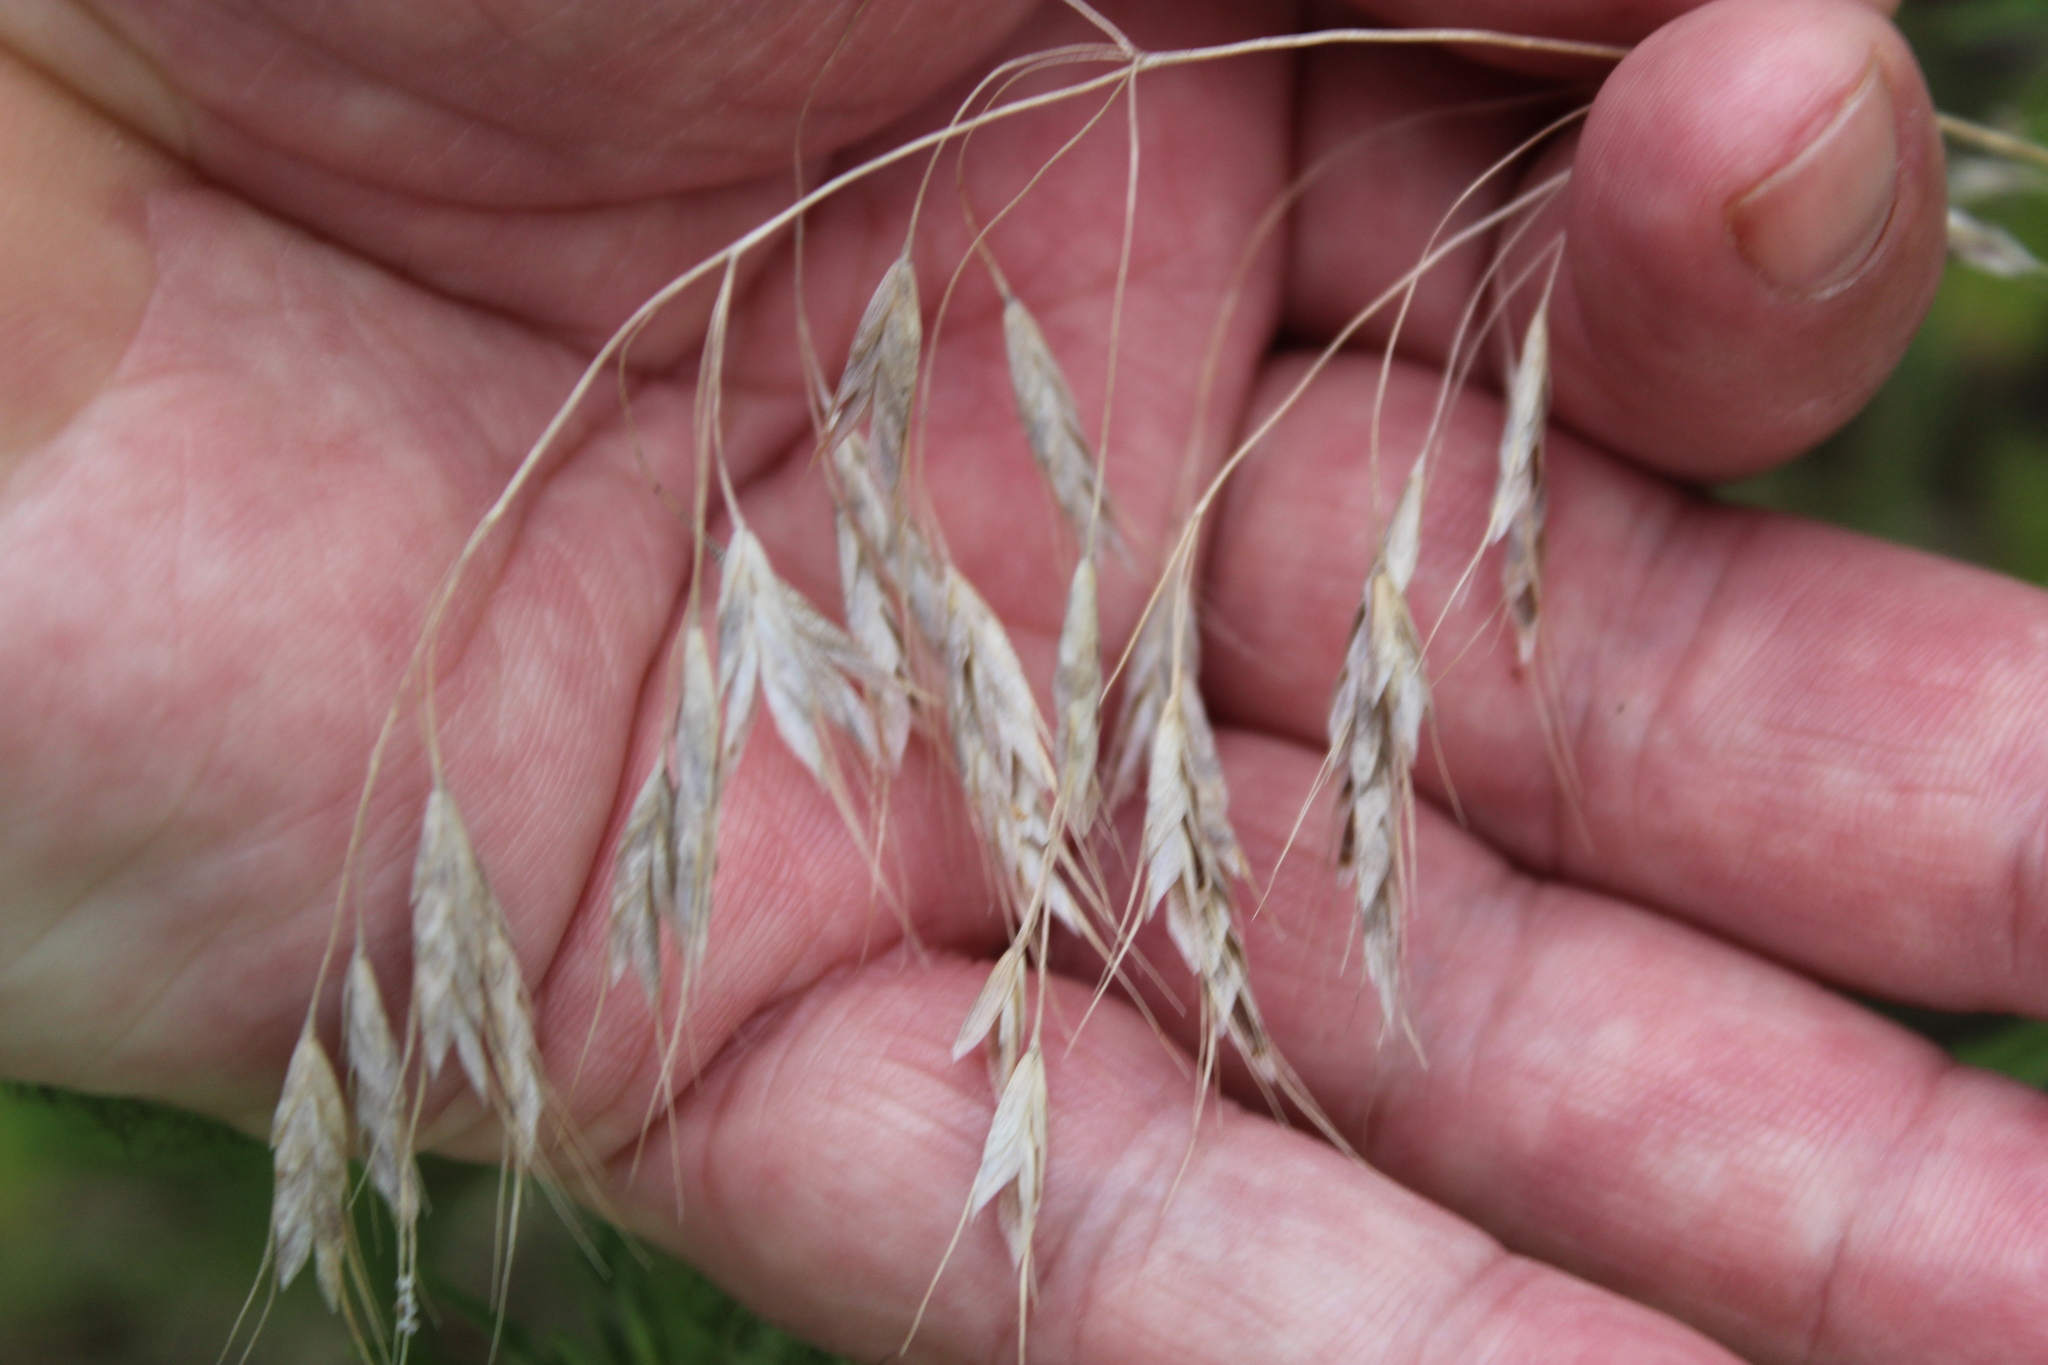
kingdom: Plantae
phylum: Tracheophyta
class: Liliopsida
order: Poales
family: Poaceae
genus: Bromus
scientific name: Bromus japonicus
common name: Japanese brome
